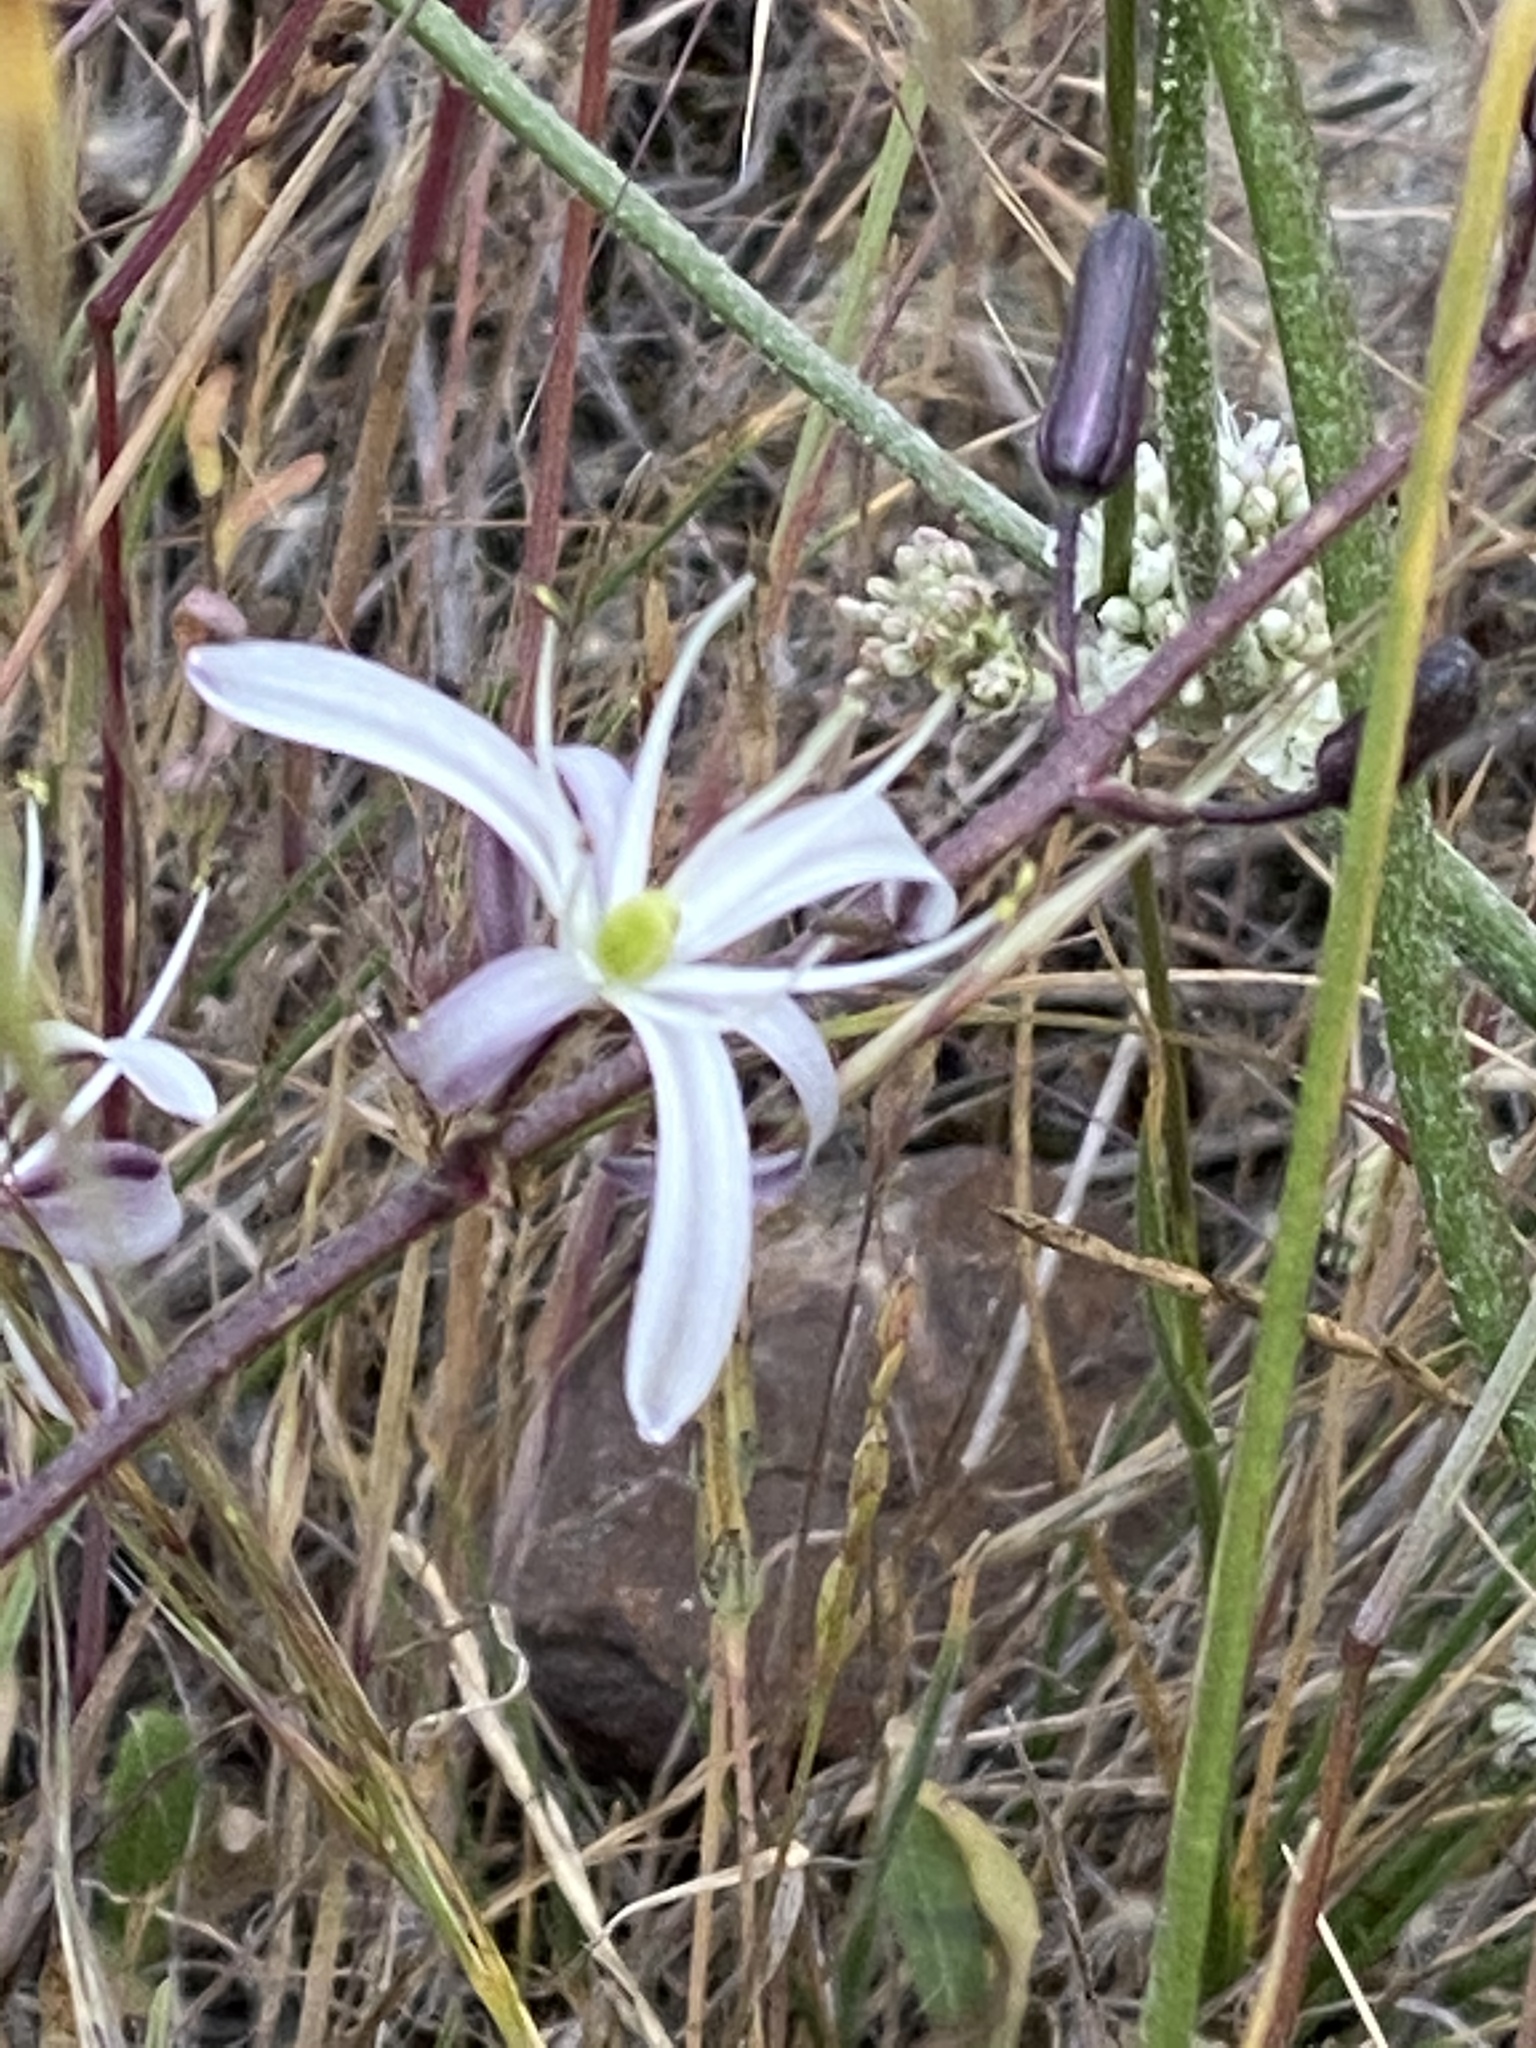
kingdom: Plantae
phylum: Tracheophyta
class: Liliopsida
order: Asparagales
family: Asparagaceae
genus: Chlorogalum
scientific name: Chlorogalum pomeridianum
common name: Amole
